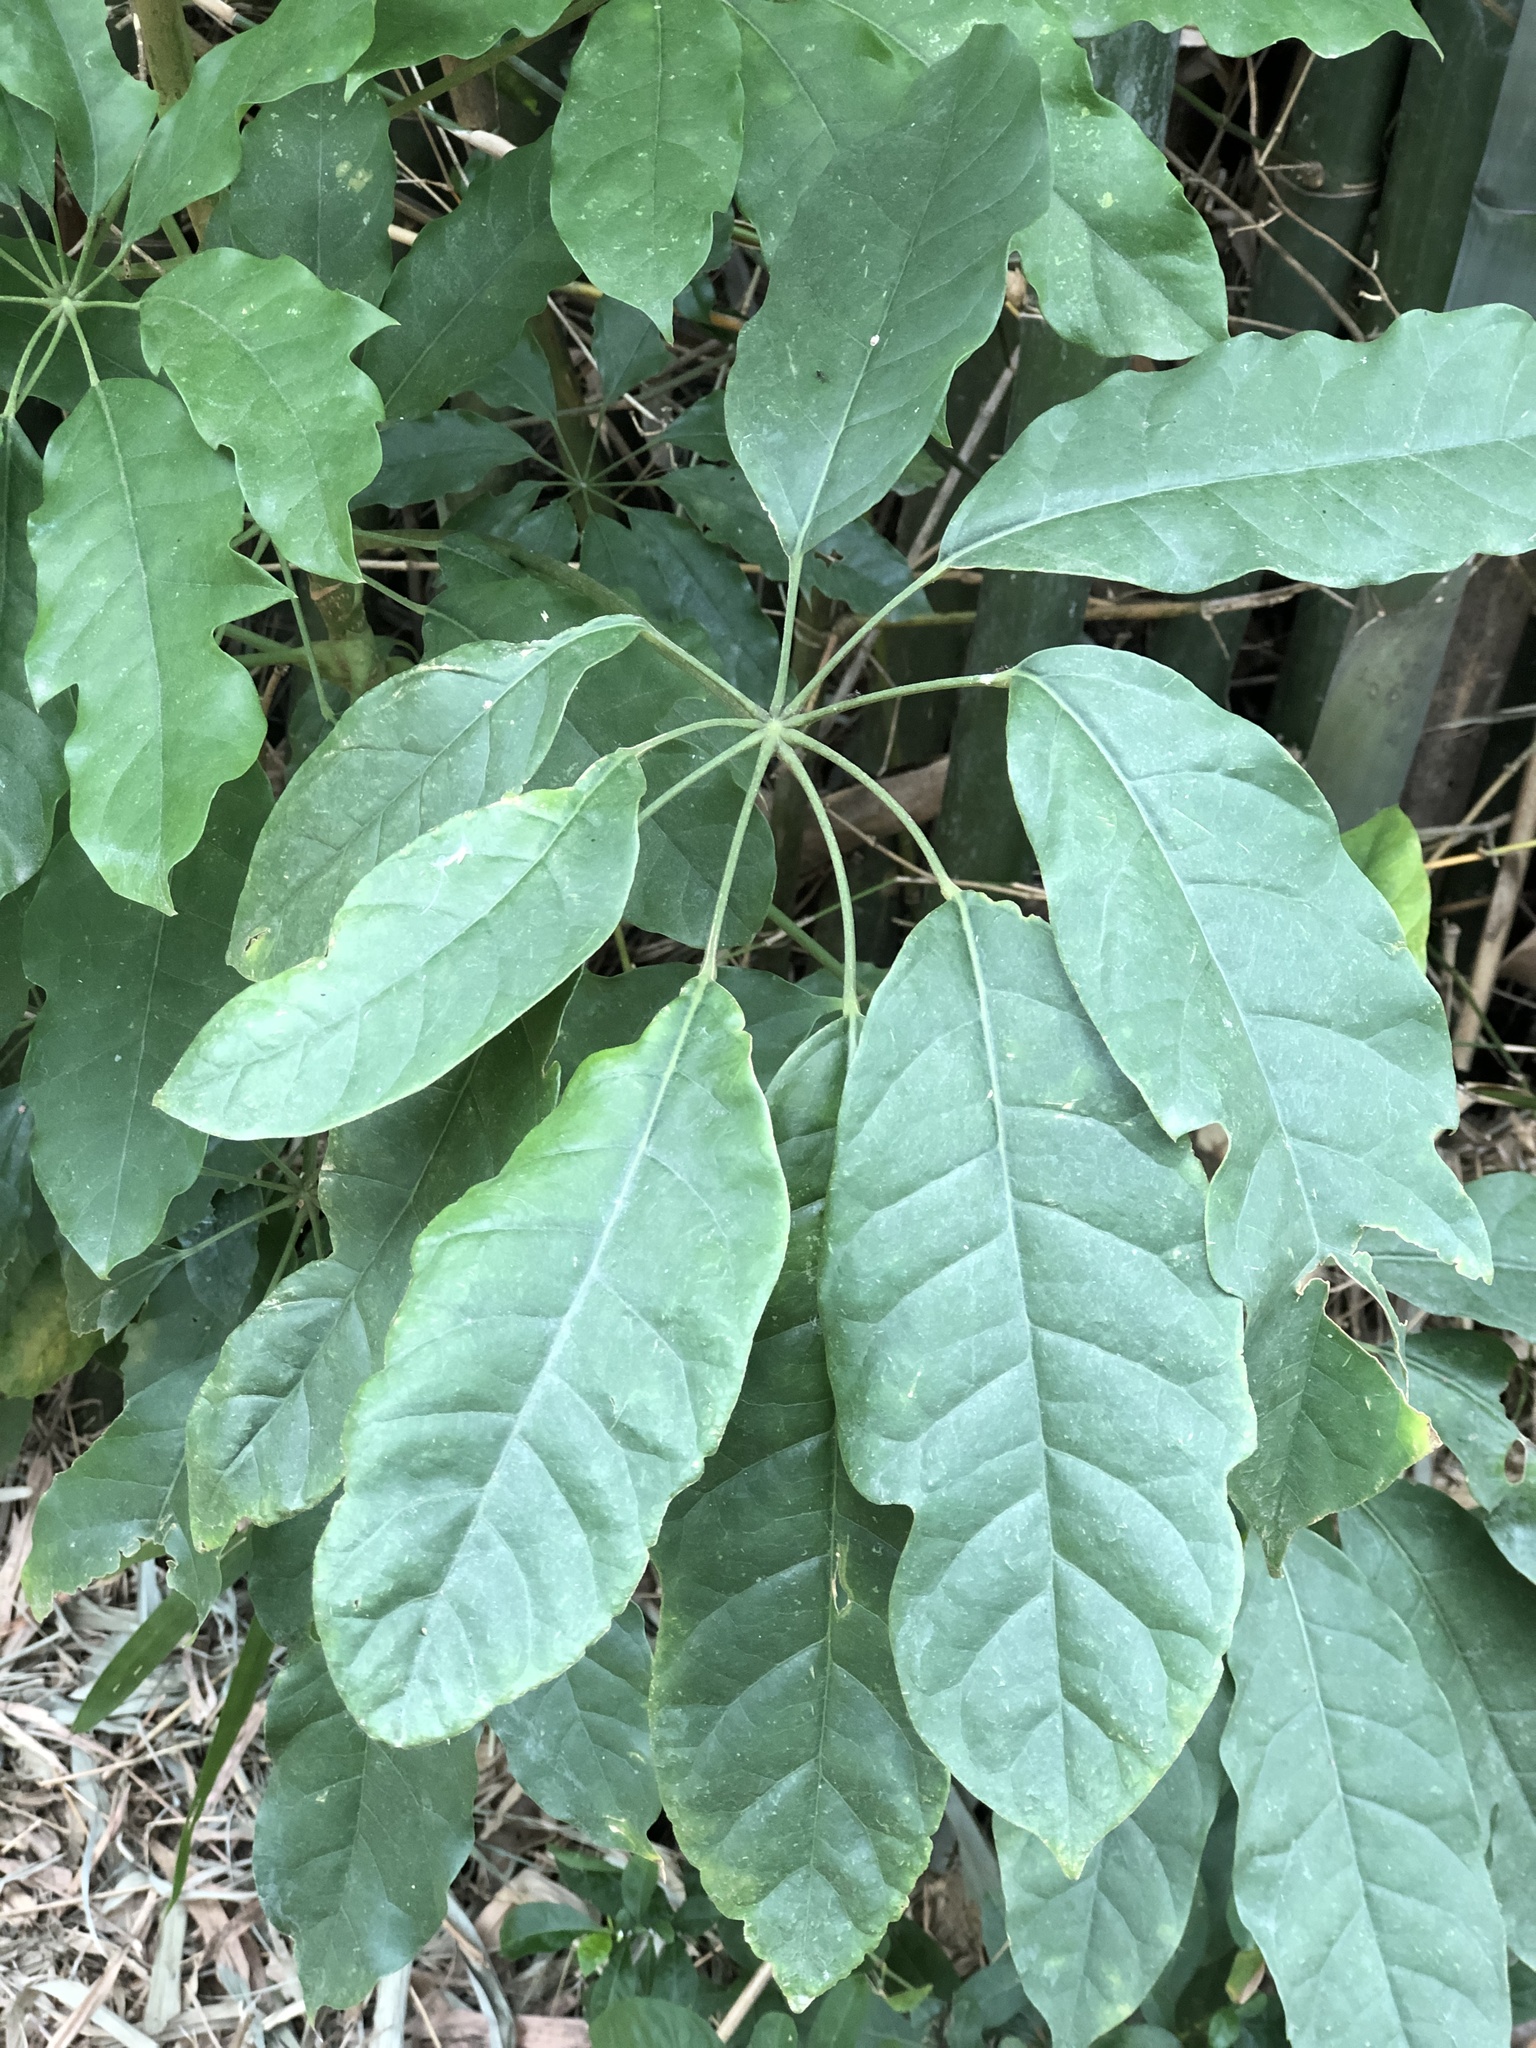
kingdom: Plantae
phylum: Tracheophyta
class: Magnoliopsida
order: Apiales
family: Araliaceae
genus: Heptapleurum
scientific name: Heptapleurum heptaphyllum
